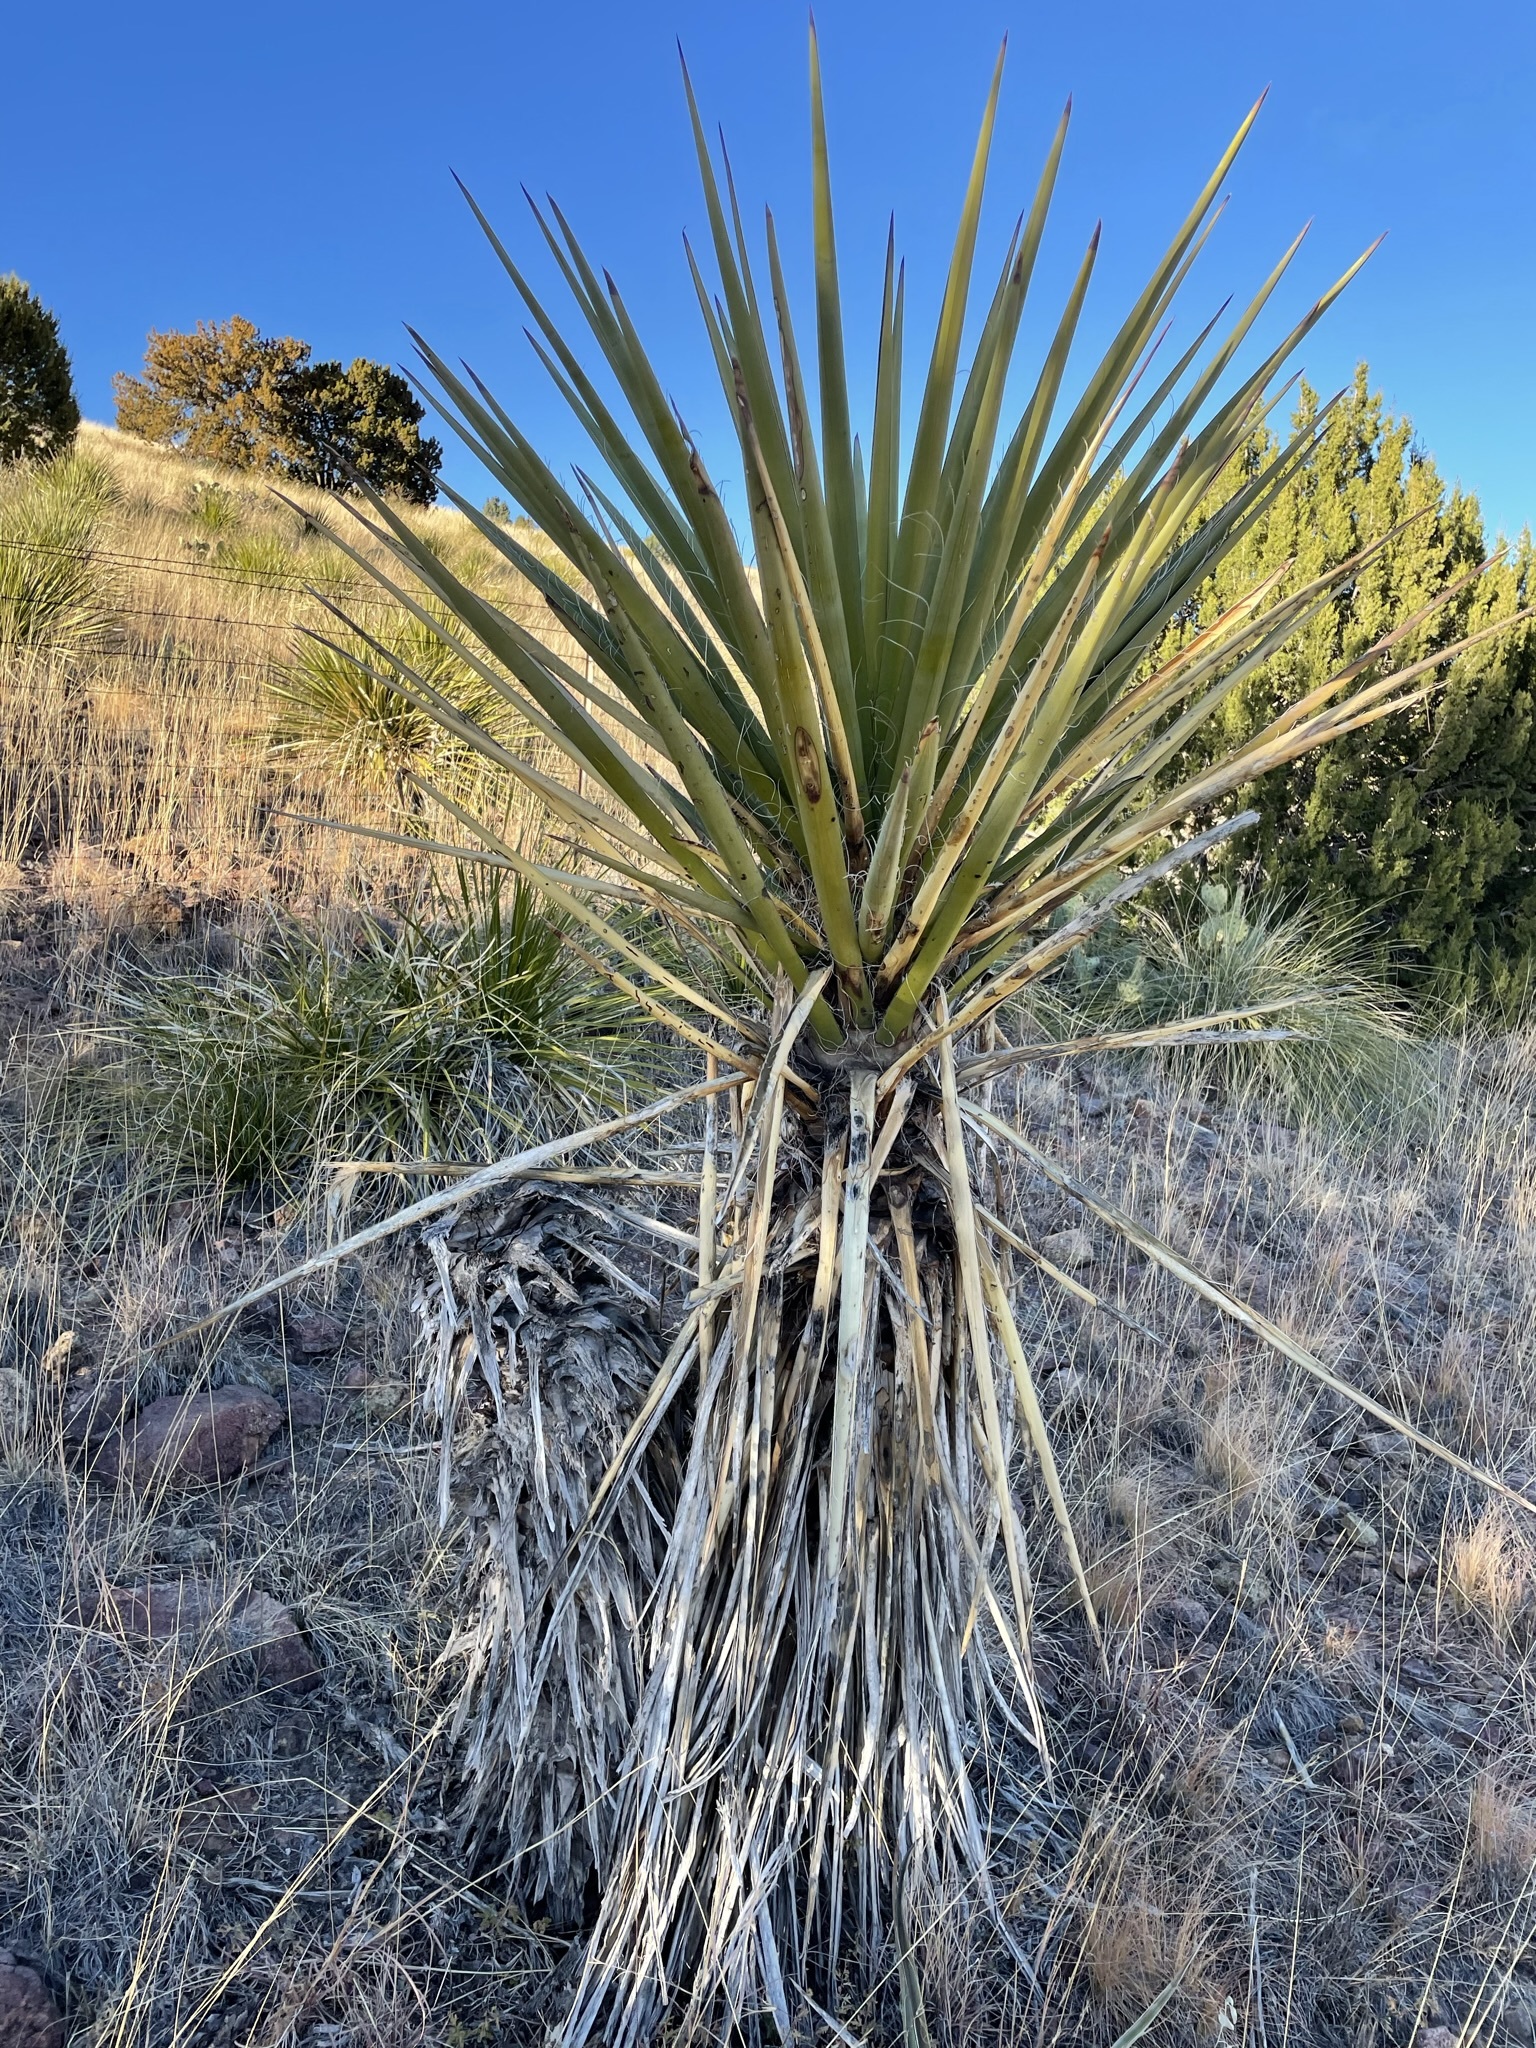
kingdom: Plantae
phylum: Tracheophyta
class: Liliopsida
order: Asparagales
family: Asparagaceae
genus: Yucca
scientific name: Yucca treculiana
